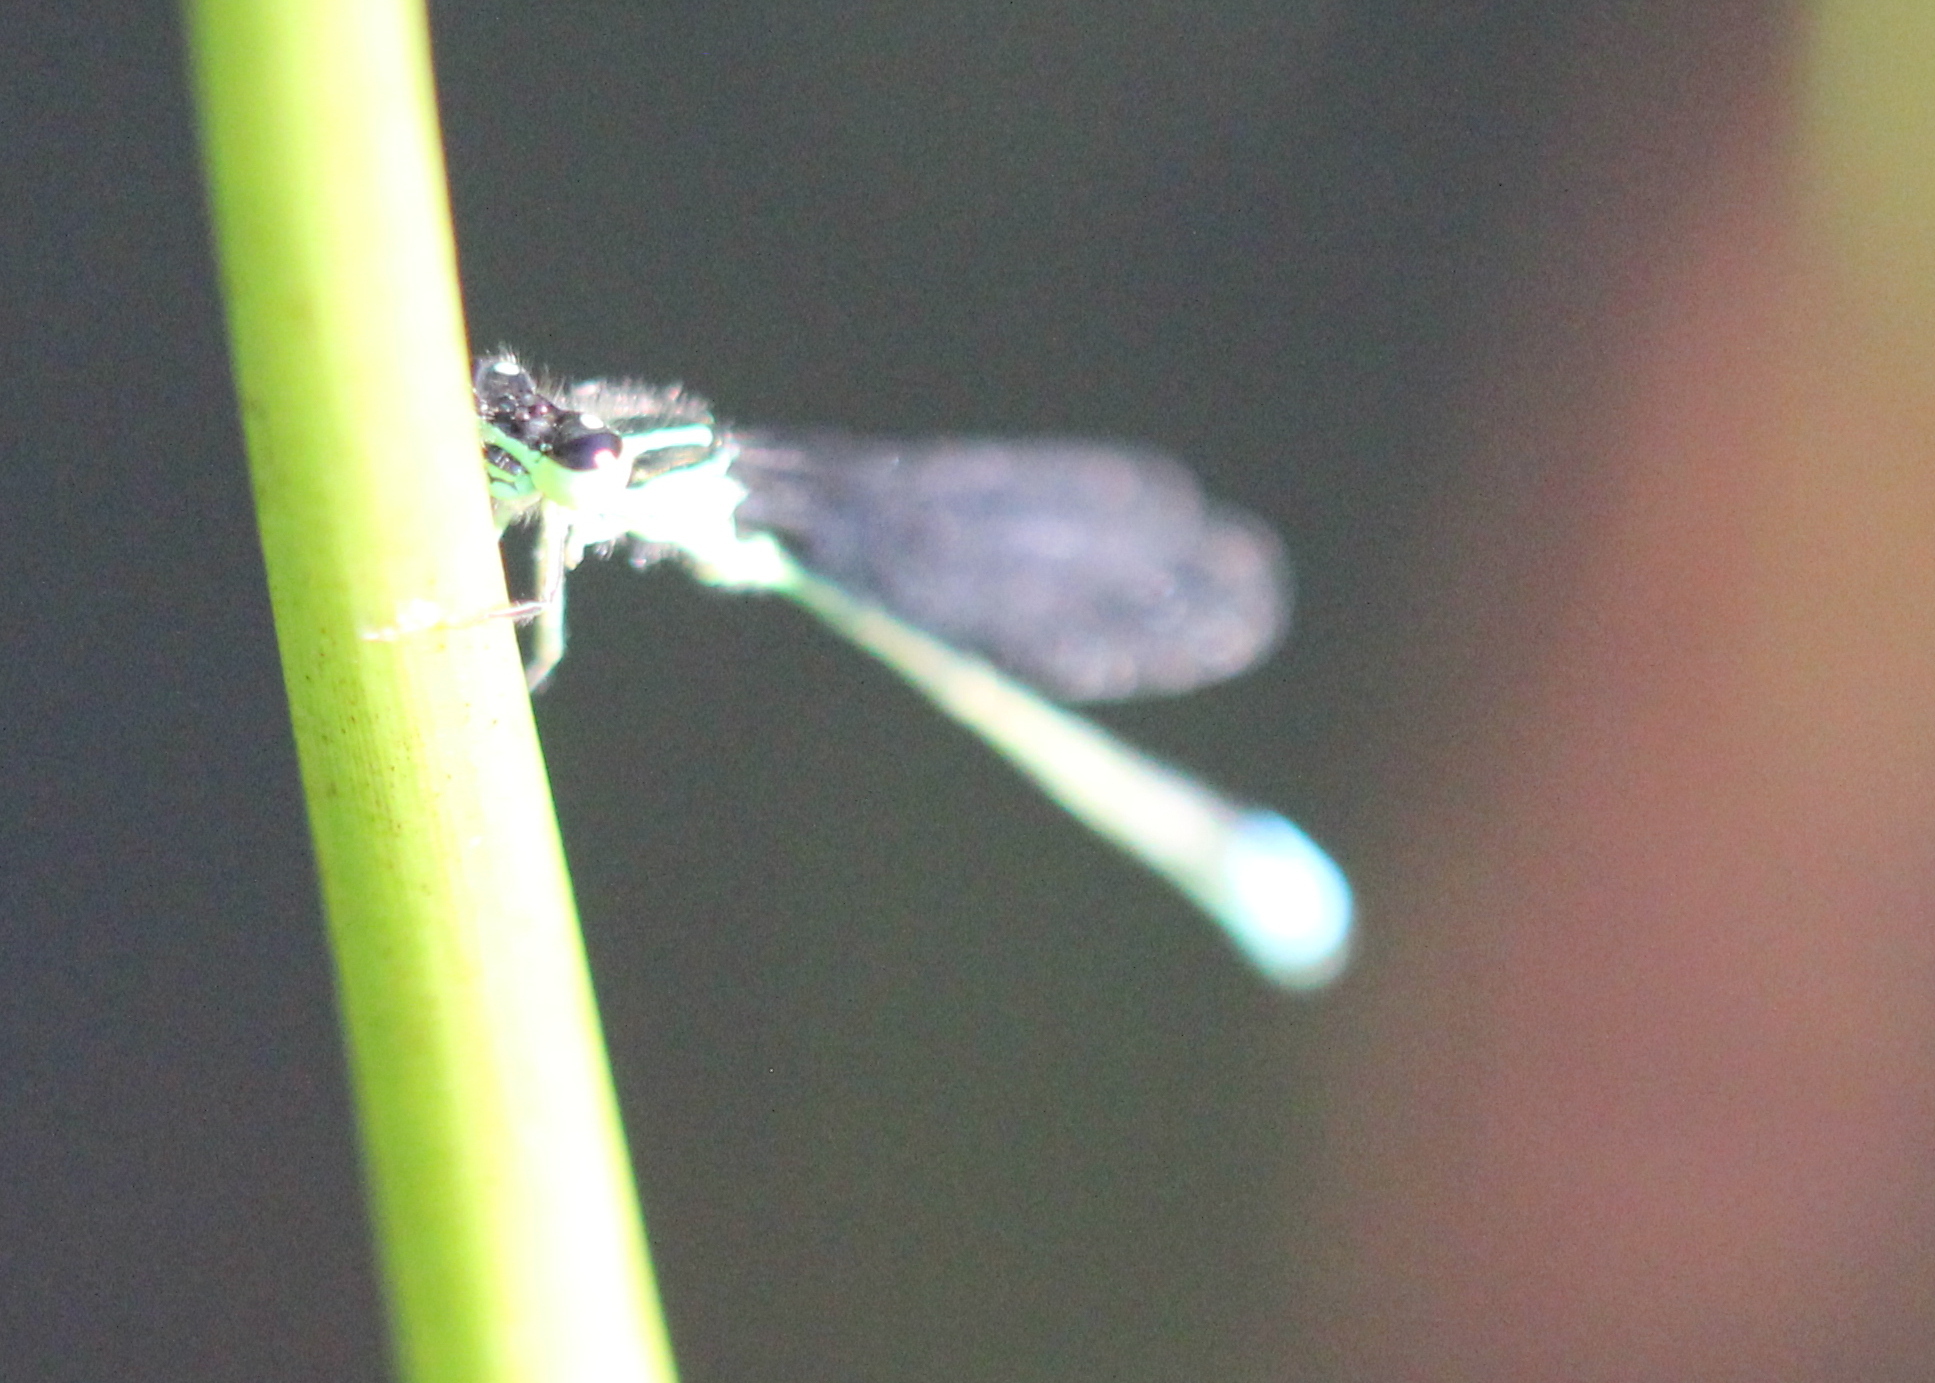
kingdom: Animalia
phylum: Arthropoda
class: Insecta
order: Odonata
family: Coenagrionidae
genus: Ischnura
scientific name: Ischnura verticalis
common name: Eastern forktail
